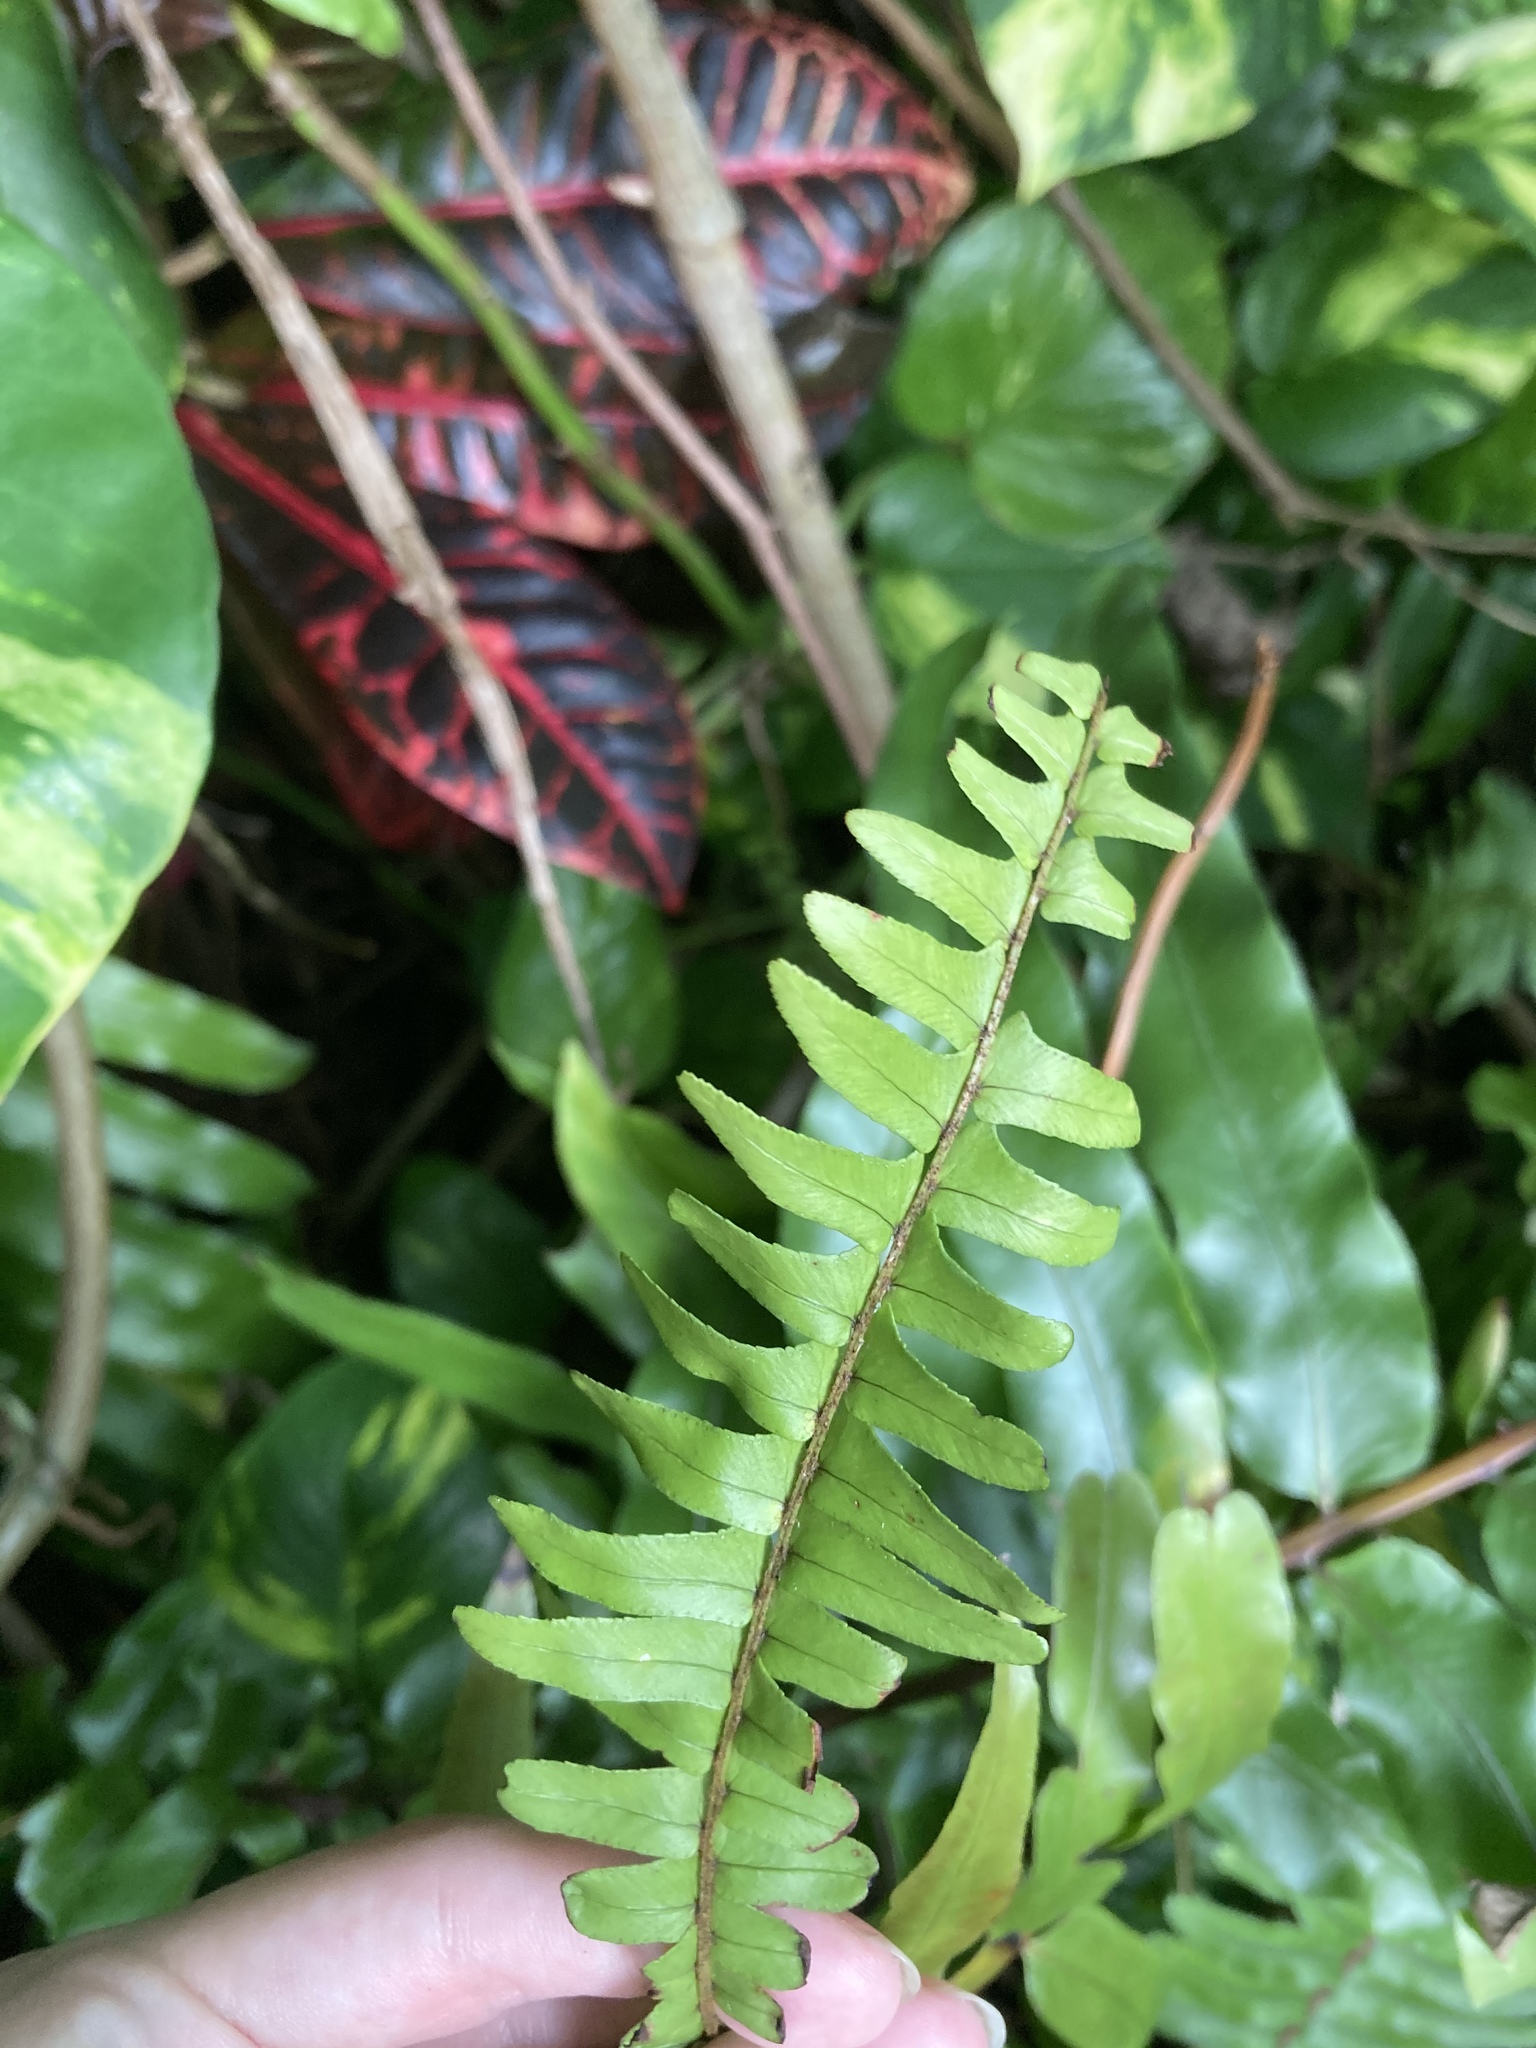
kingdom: Plantae
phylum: Tracheophyta
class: Polypodiopsida
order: Polypodiales
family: Nephrolepidaceae
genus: Nephrolepis
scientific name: Nephrolepis cordifolia
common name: Narrow swordfern
